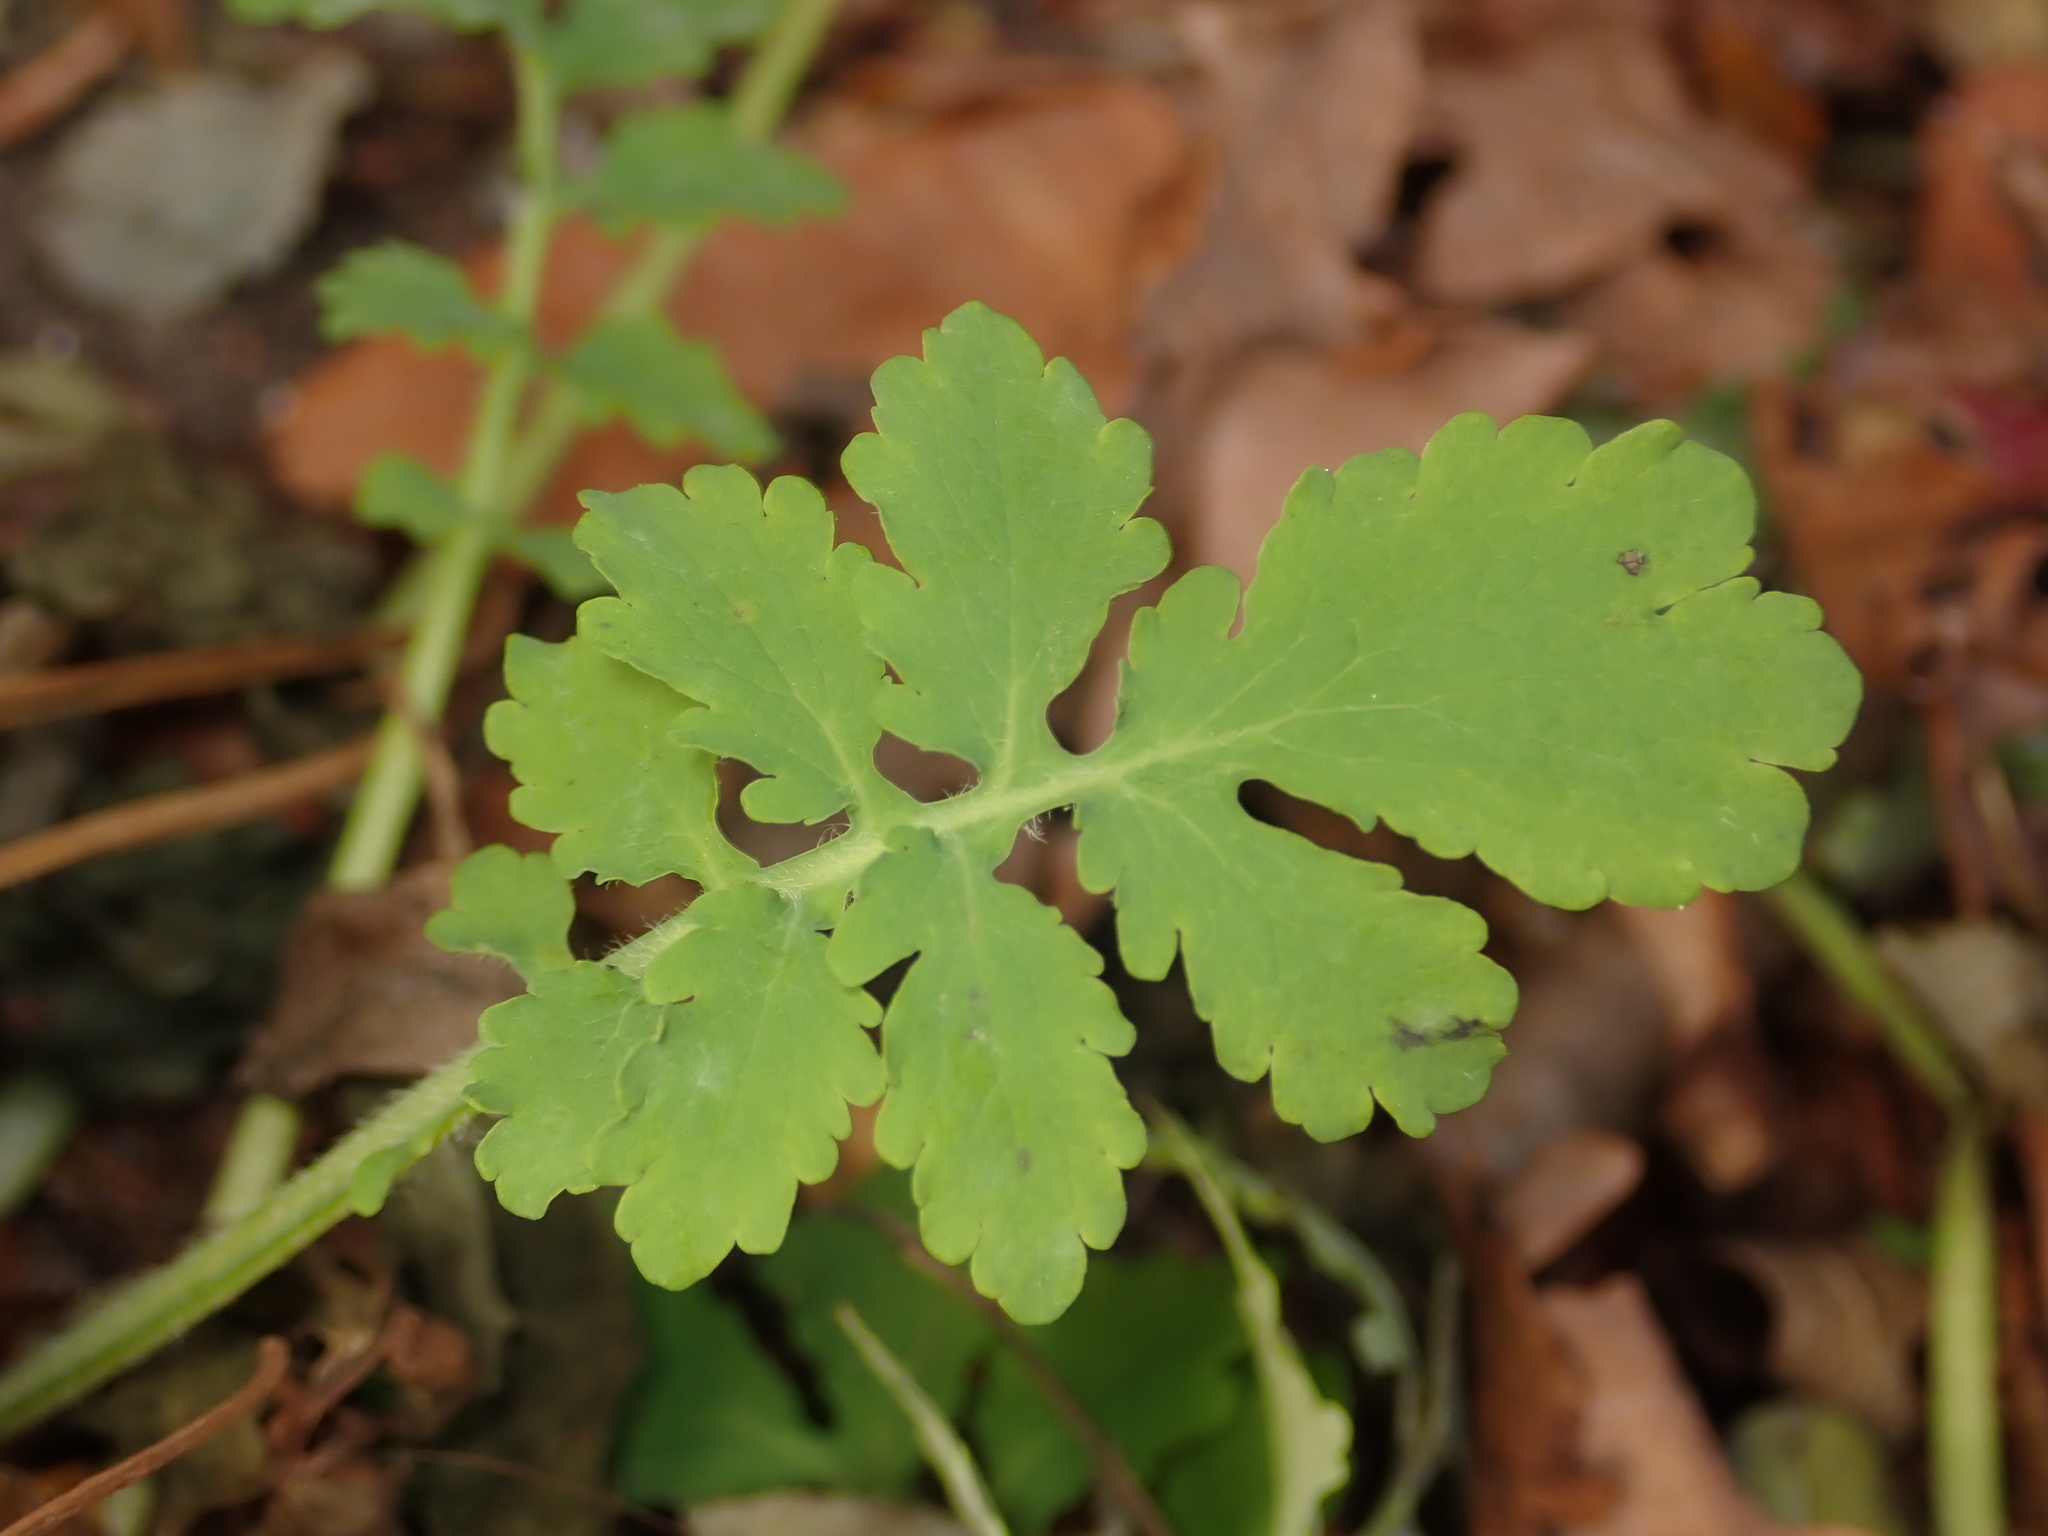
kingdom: Plantae
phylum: Tracheophyta
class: Magnoliopsida
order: Ranunculales
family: Papaveraceae
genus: Chelidonium
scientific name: Chelidonium majus
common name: Greater celandine
